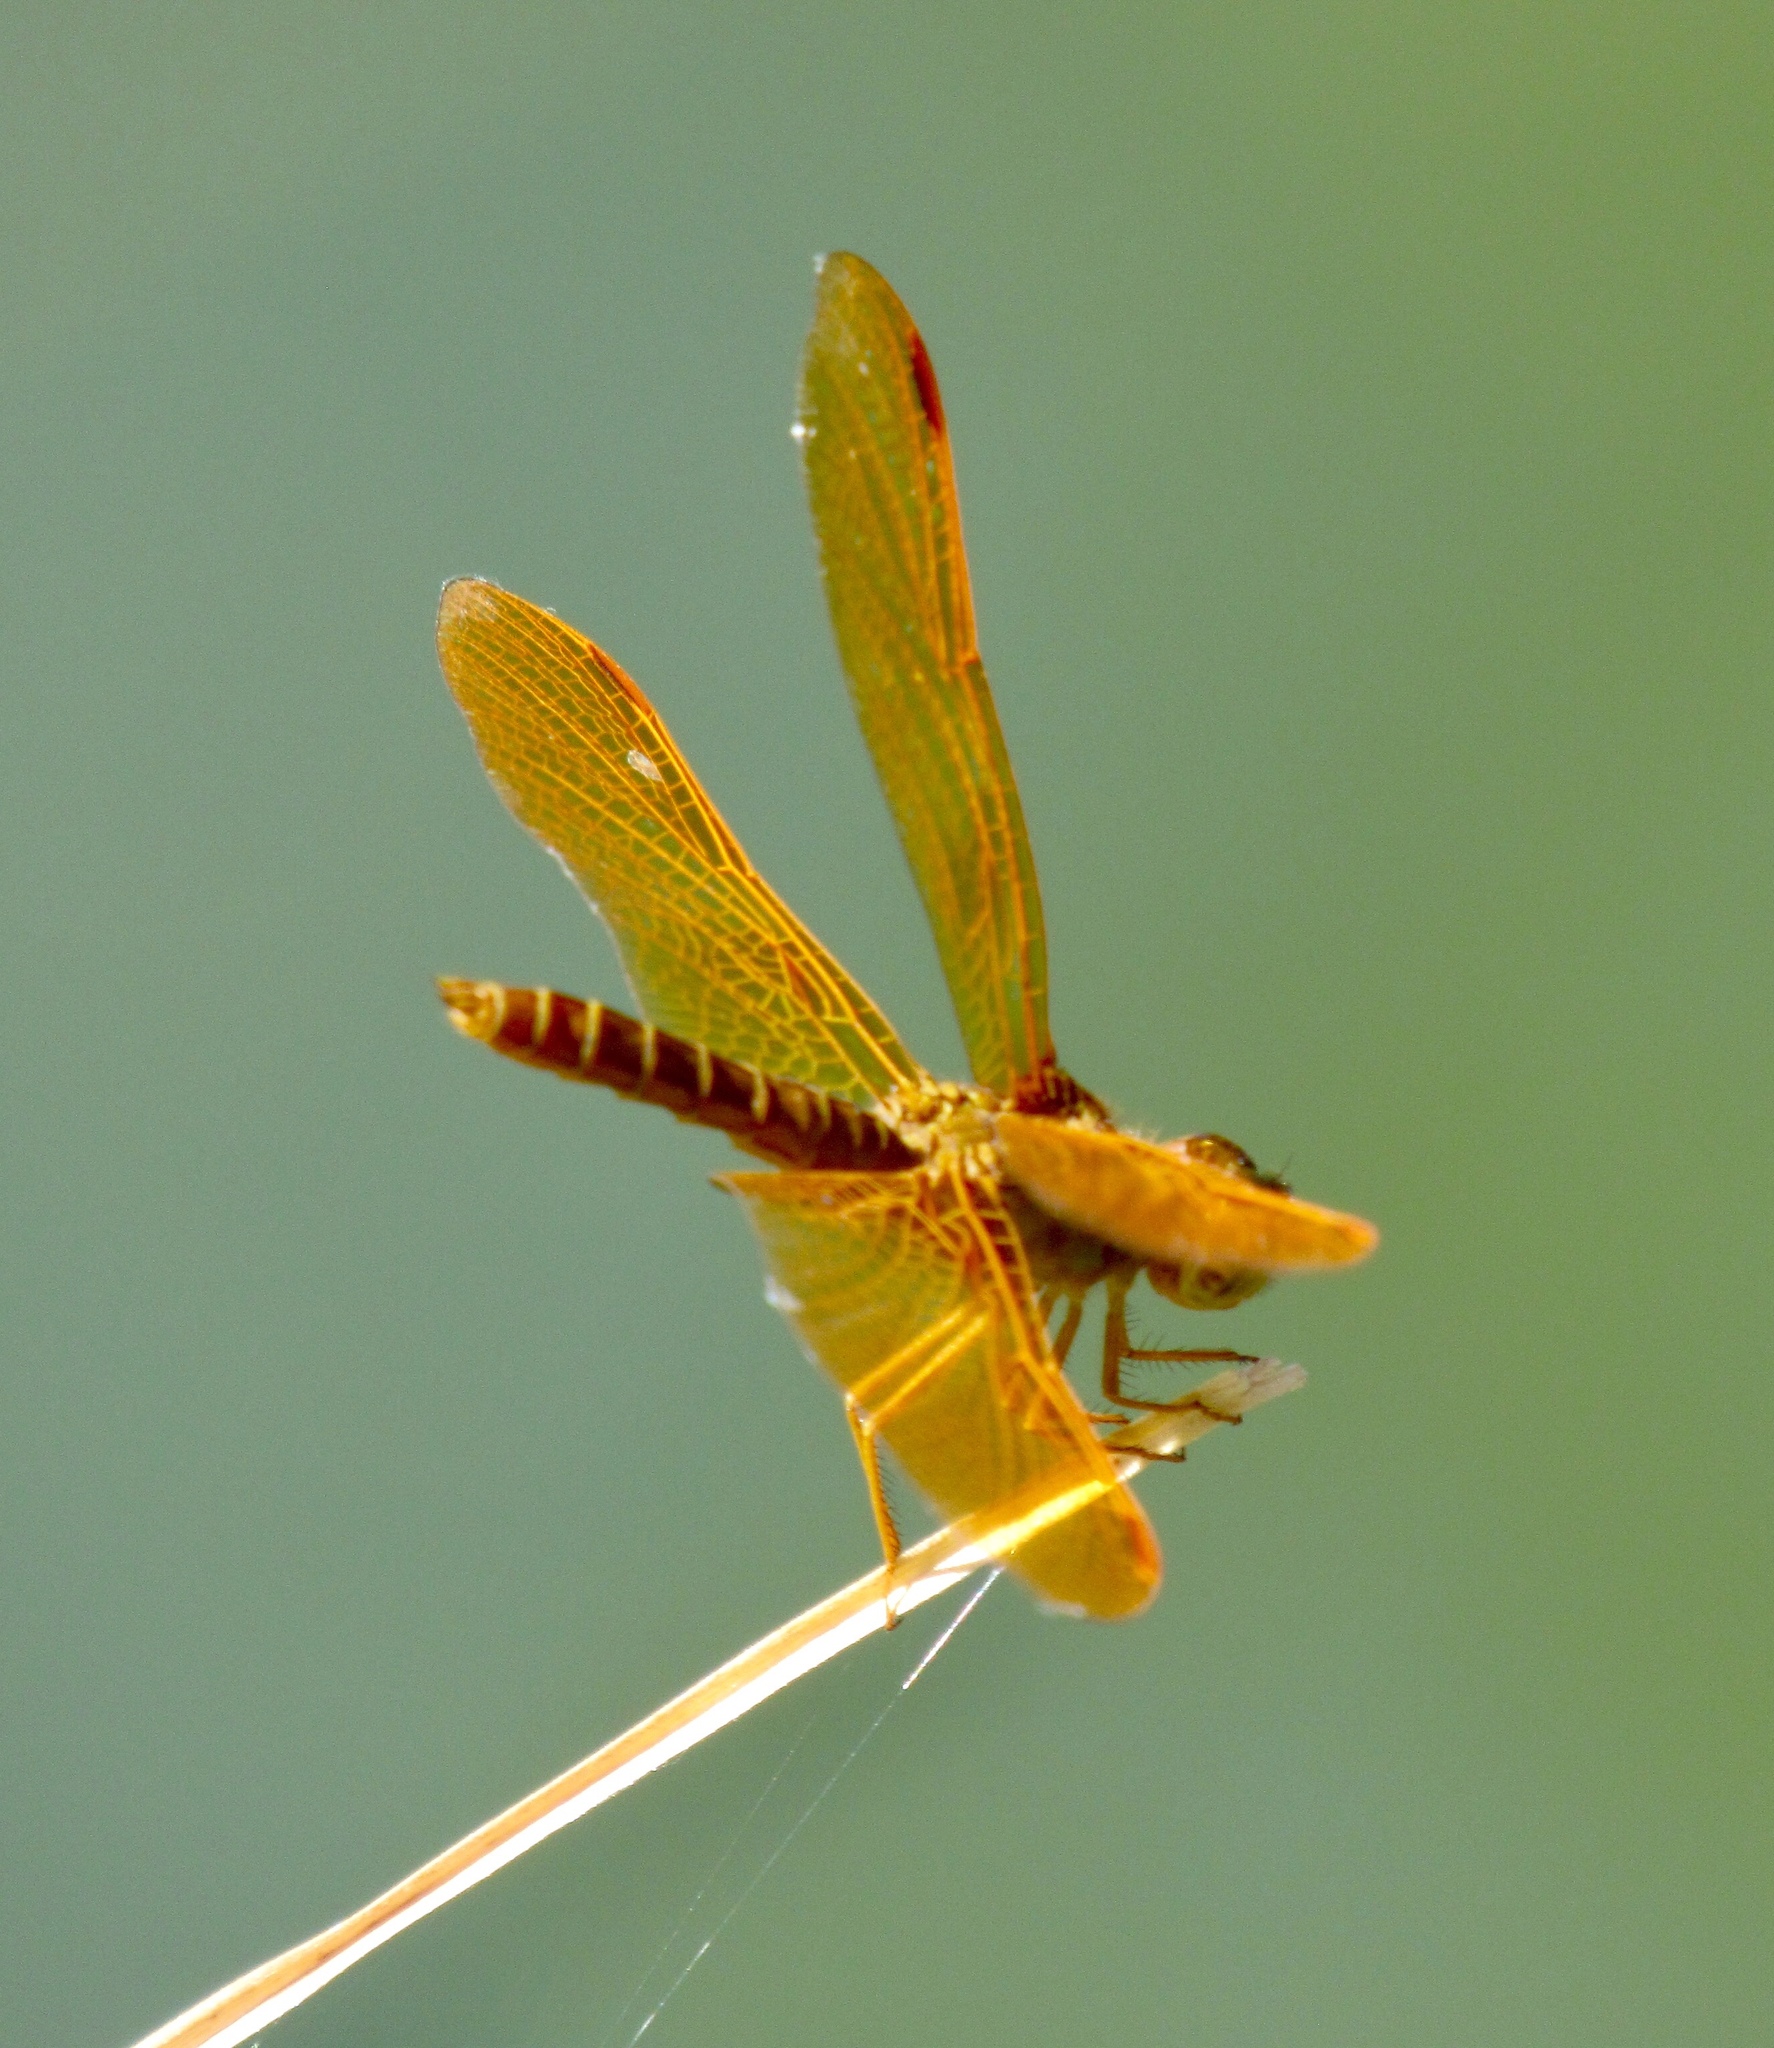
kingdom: Animalia
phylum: Arthropoda
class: Insecta
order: Odonata
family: Libellulidae
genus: Perithemis
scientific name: Perithemis intensa
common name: Mexican amberwing
